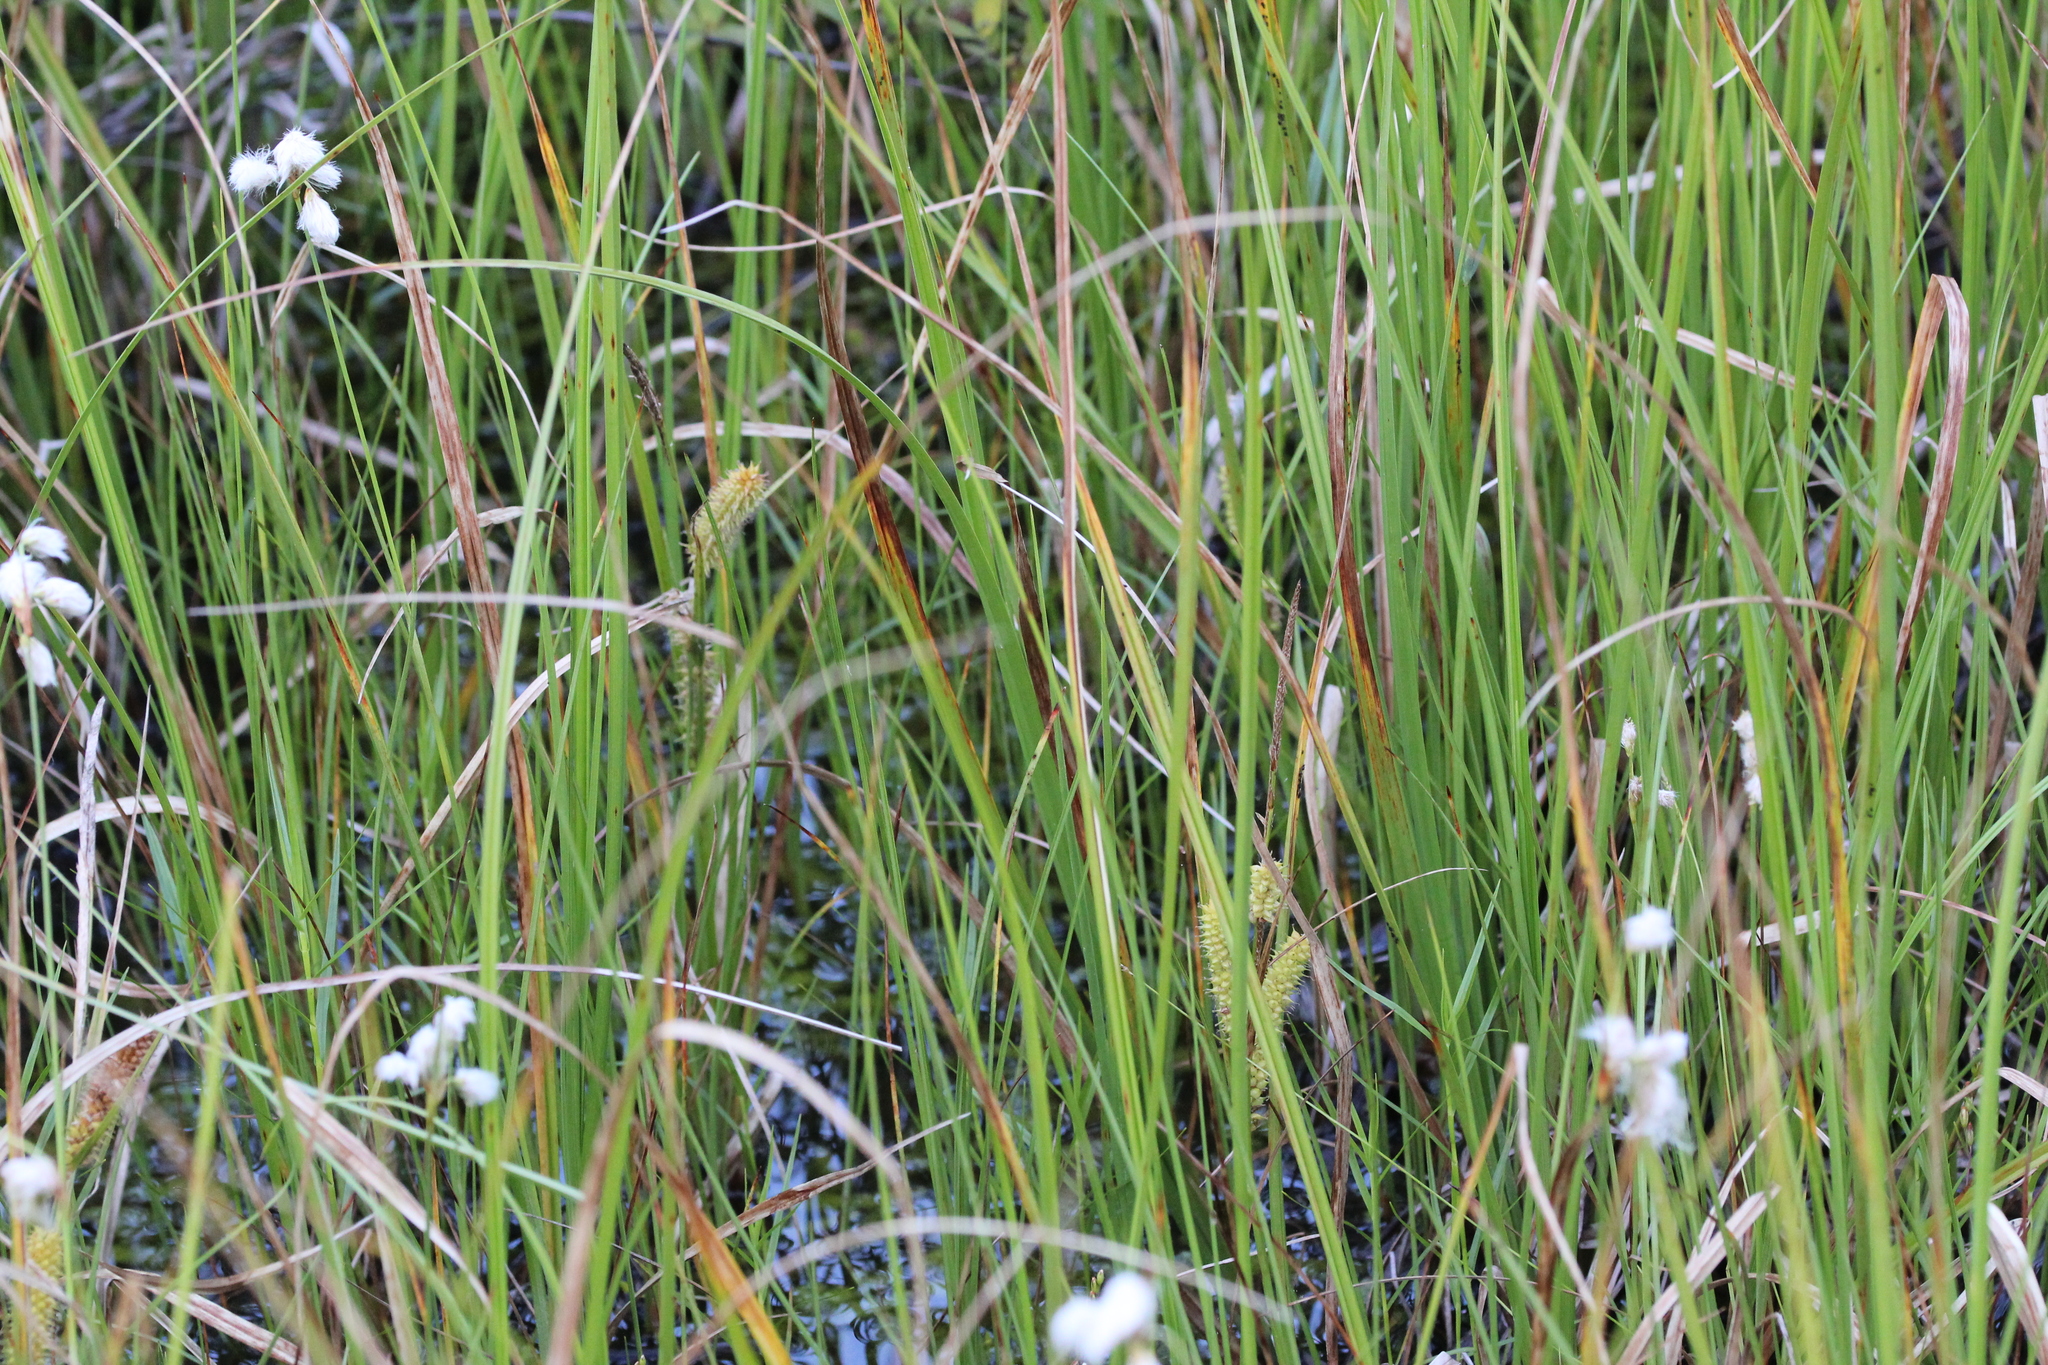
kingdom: Plantae
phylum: Tracheophyta
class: Liliopsida
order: Poales
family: Cyperaceae
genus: Carex
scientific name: Carex utriculata
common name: Beaked sedge
